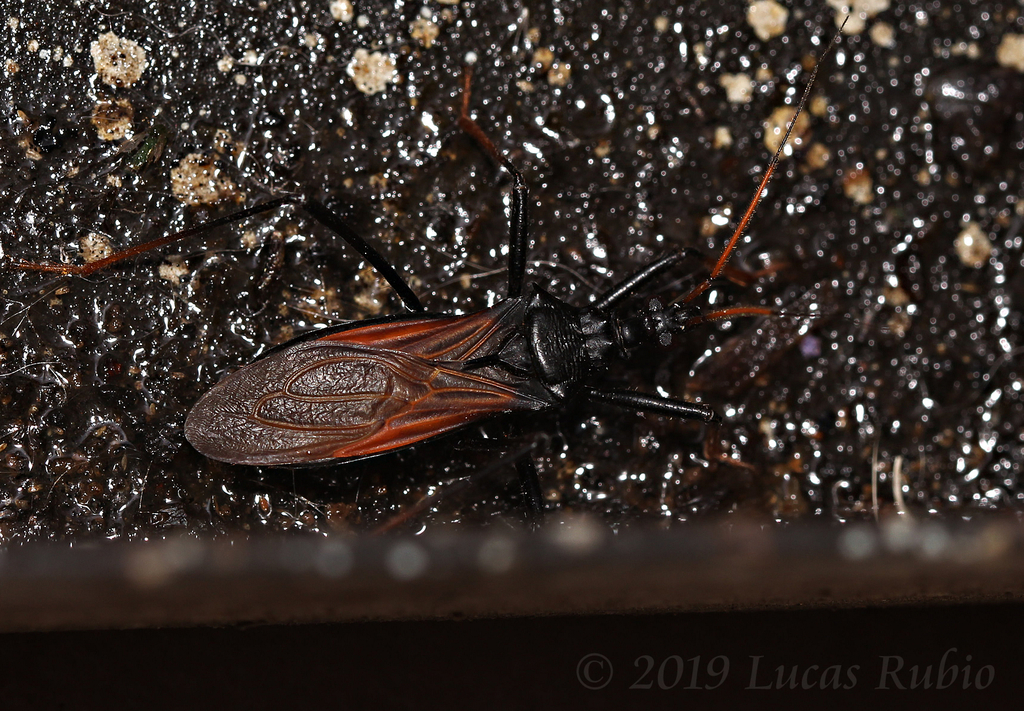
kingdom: Animalia
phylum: Arthropoda
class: Insecta
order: Hemiptera
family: Reduviidae
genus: Zelurus
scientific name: Zelurus bruchi
